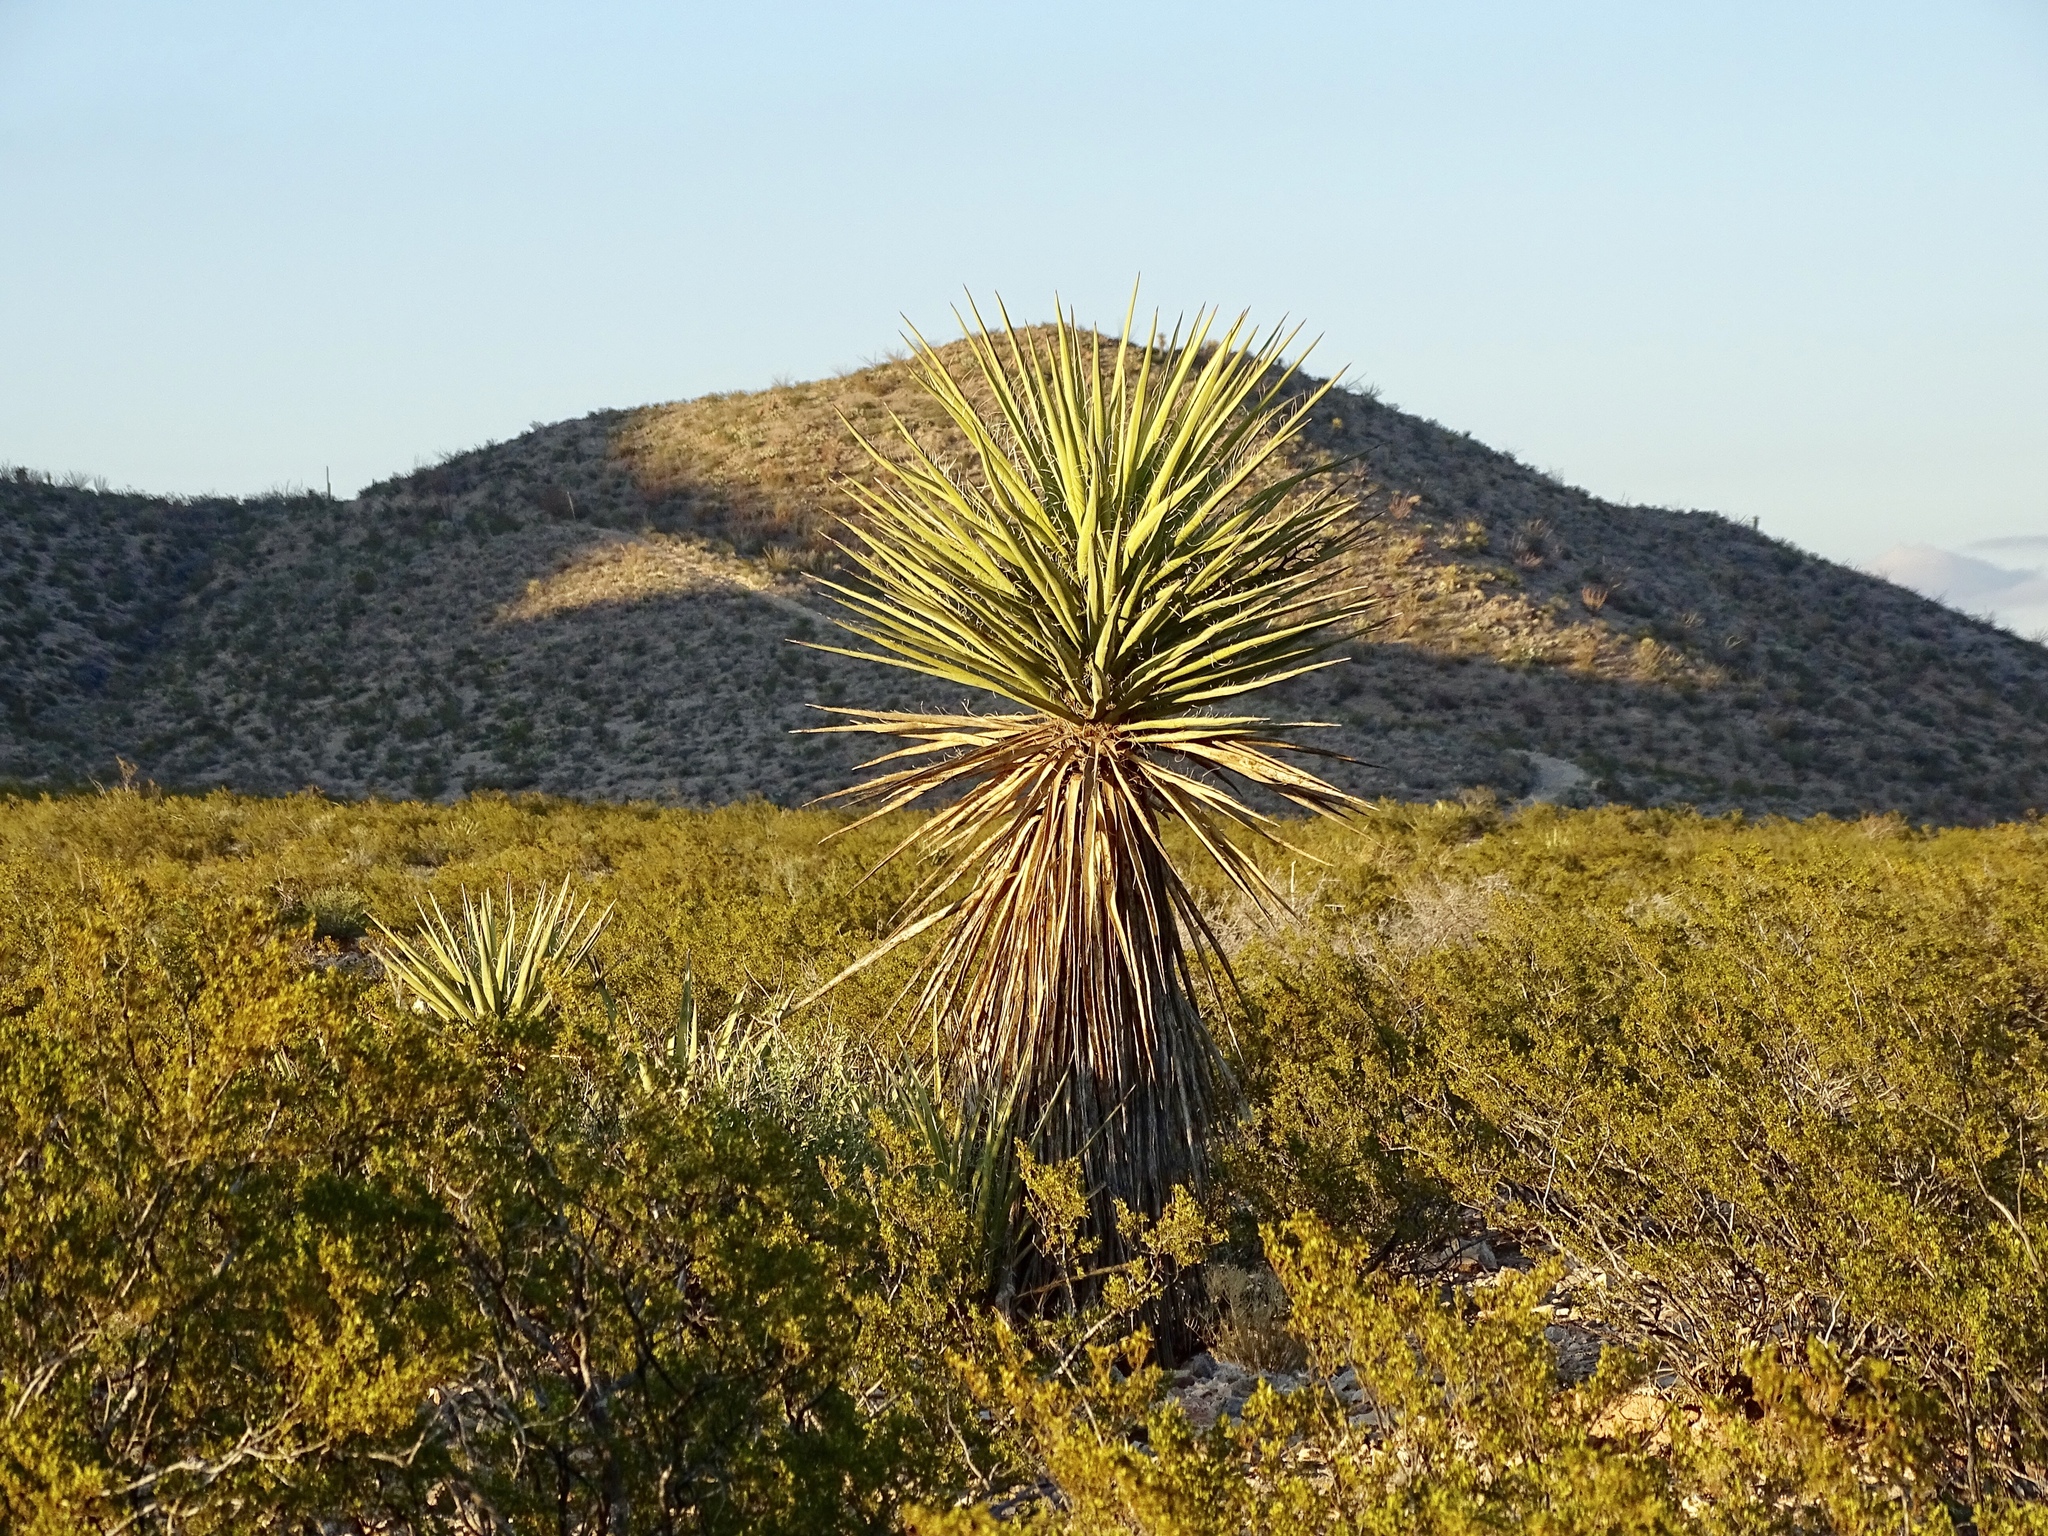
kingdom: Plantae
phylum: Tracheophyta
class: Liliopsida
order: Asparagales
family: Asparagaceae
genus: Yucca
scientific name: Yucca treculiana
